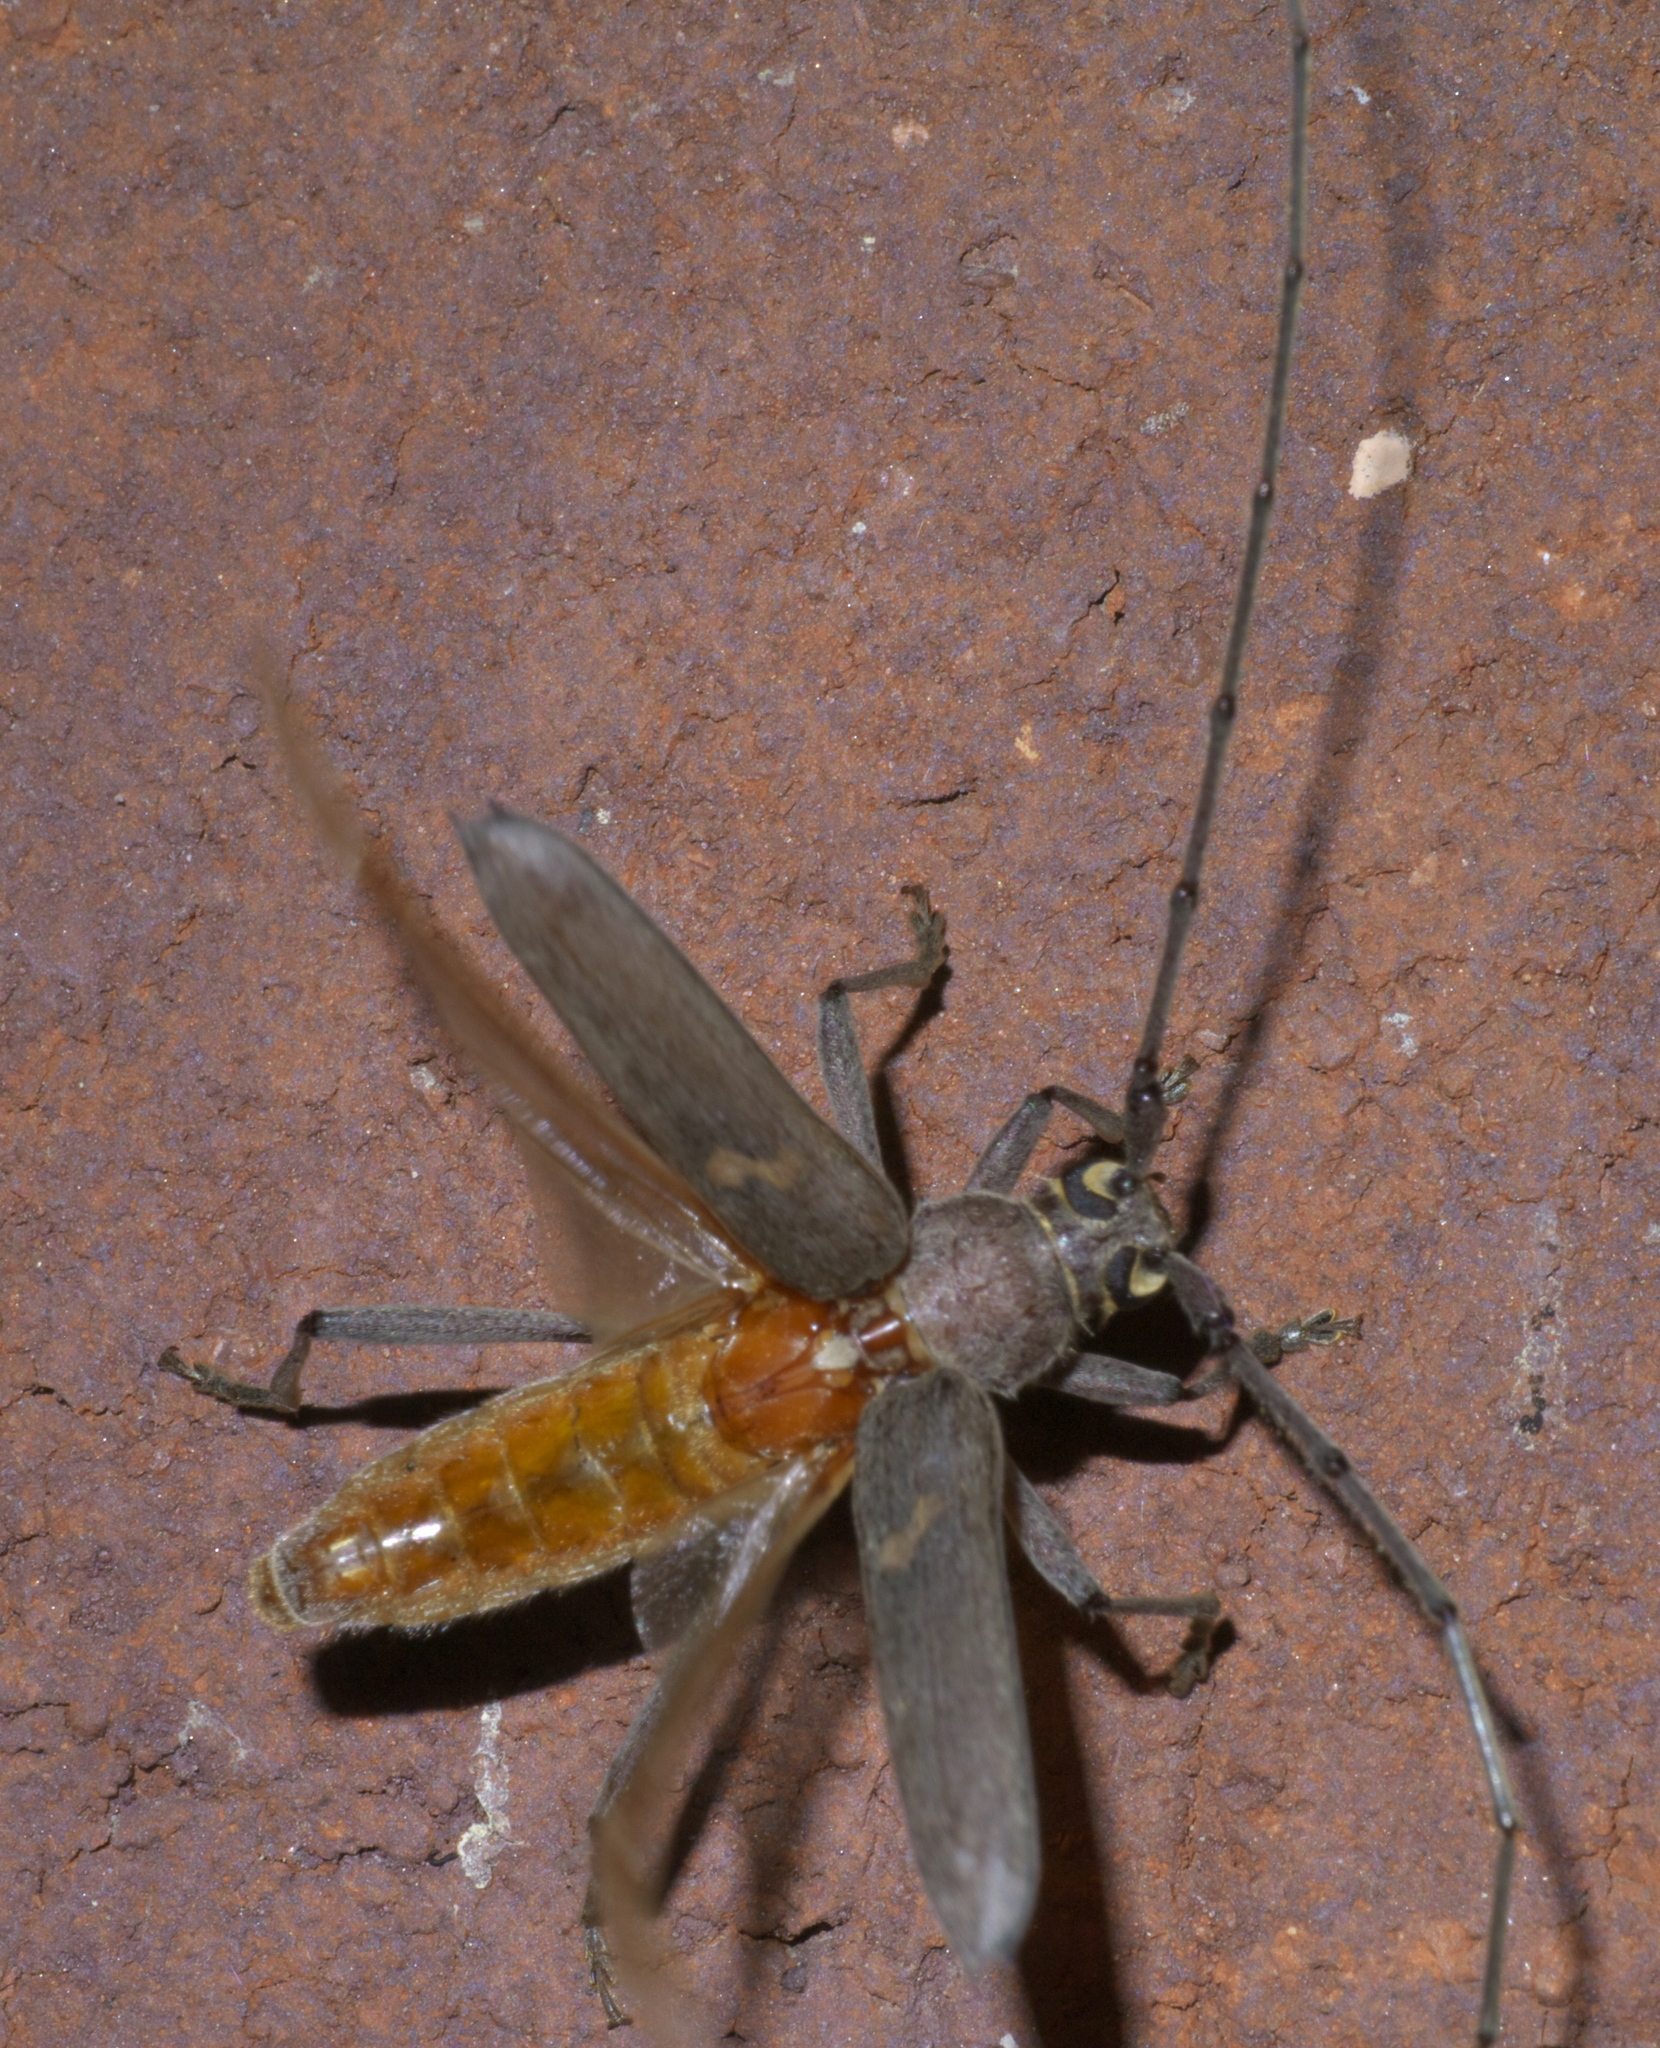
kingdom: Animalia
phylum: Arthropoda
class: Insecta
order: Coleoptera
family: Cerambycidae
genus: Knulliana
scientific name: Knulliana cincta
